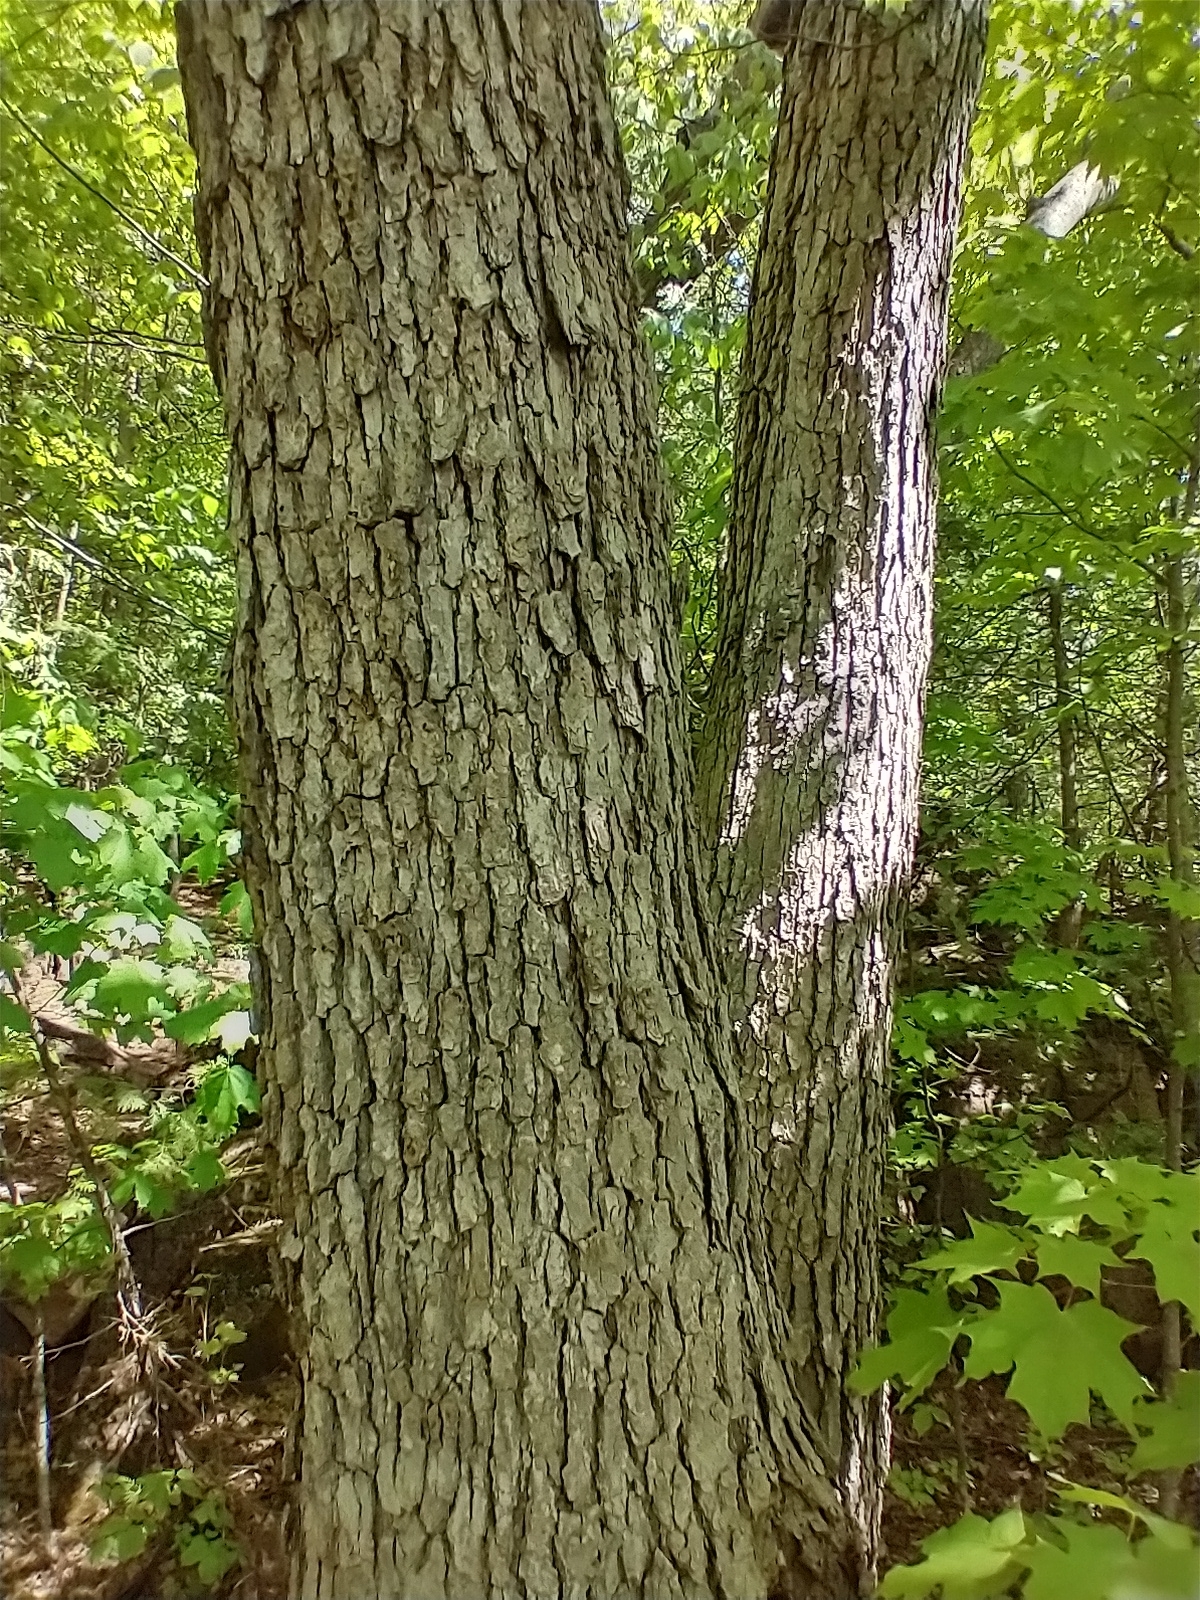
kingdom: Plantae
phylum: Tracheophyta
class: Magnoliopsida
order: Fagales
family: Fagaceae
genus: Quercus
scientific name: Quercus alba
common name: White oak
